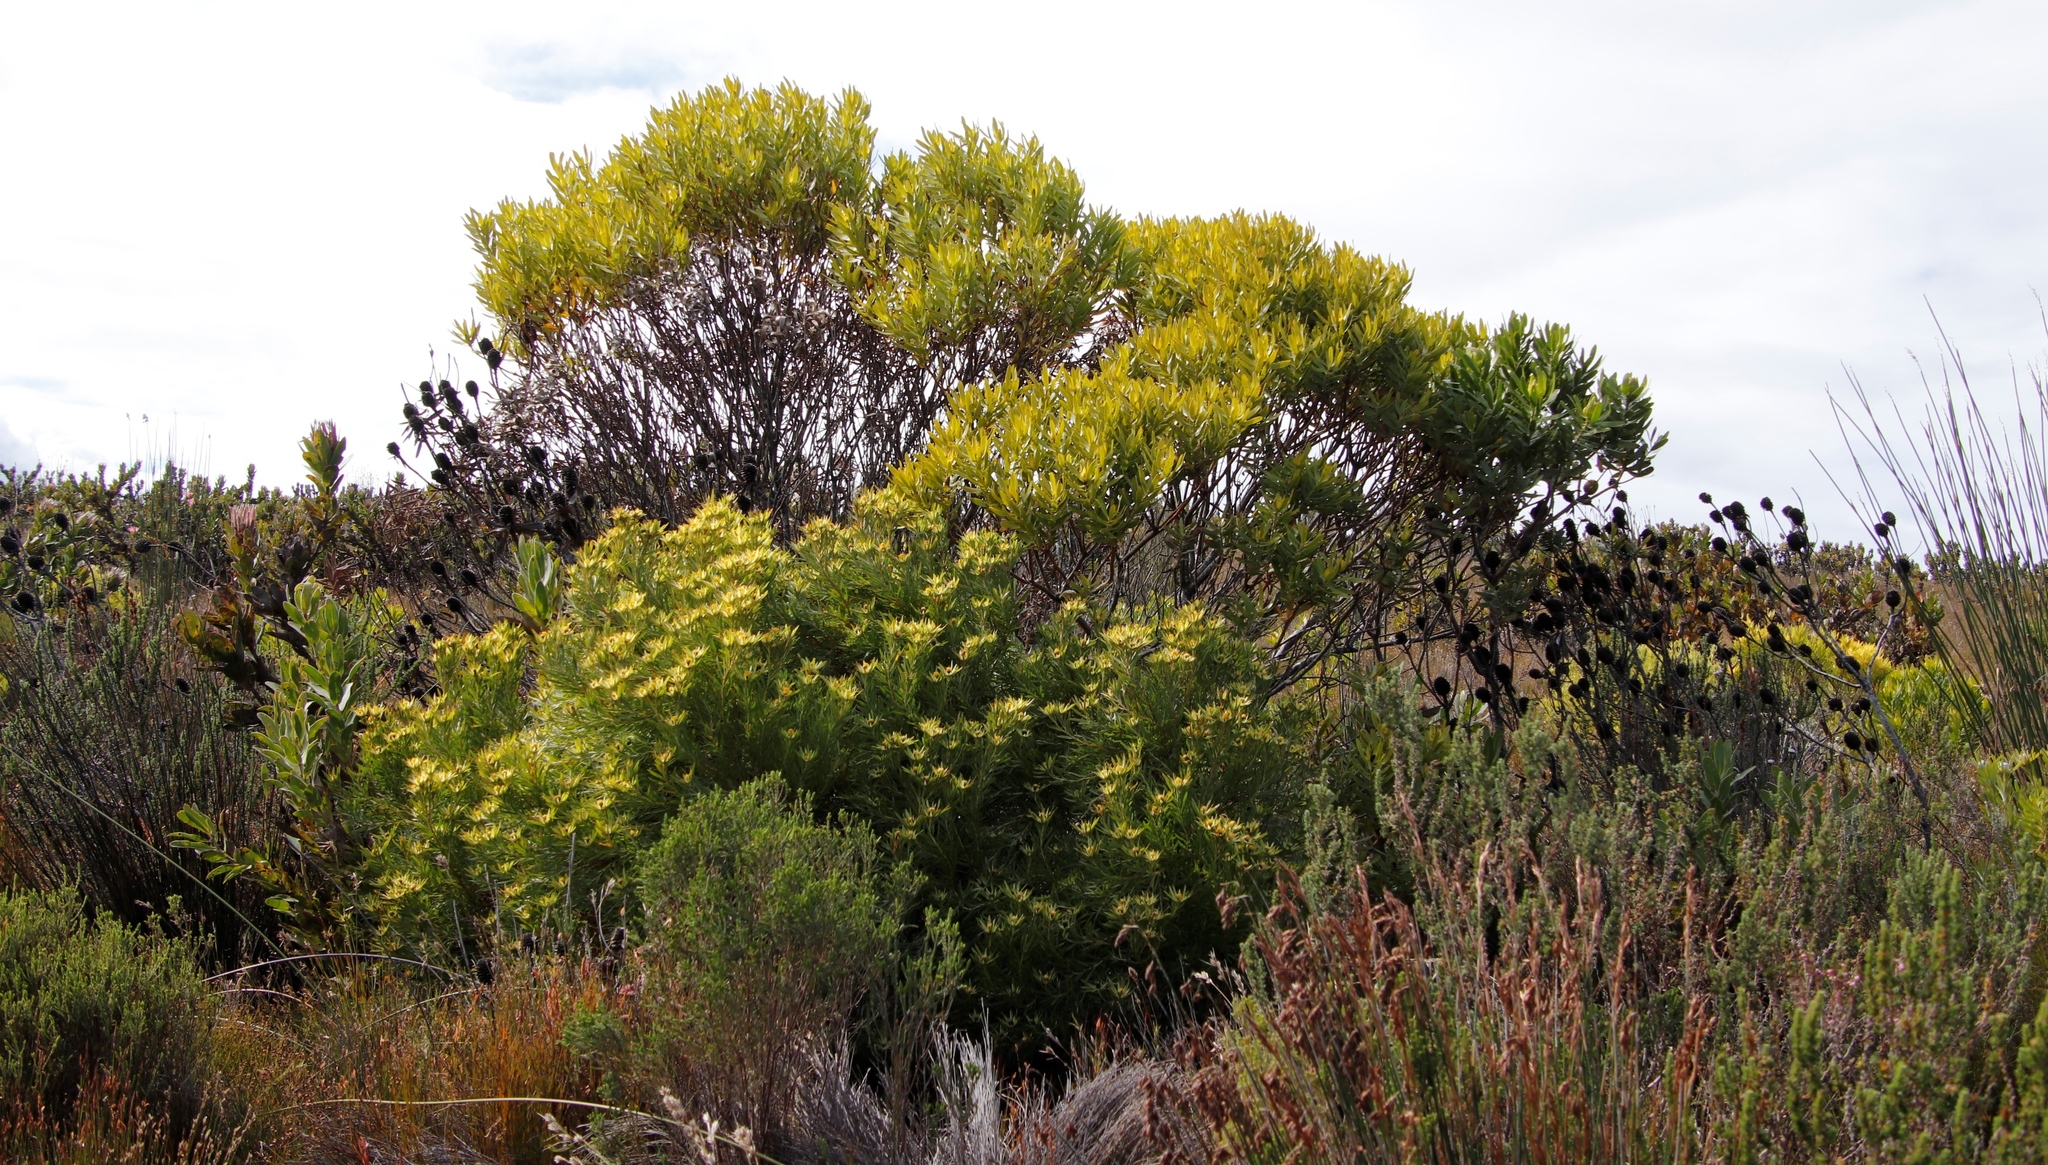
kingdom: Plantae
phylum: Tracheophyta
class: Magnoliopsida
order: Proteales
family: Proteaceae
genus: Leucadendron
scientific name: Leucadendron
